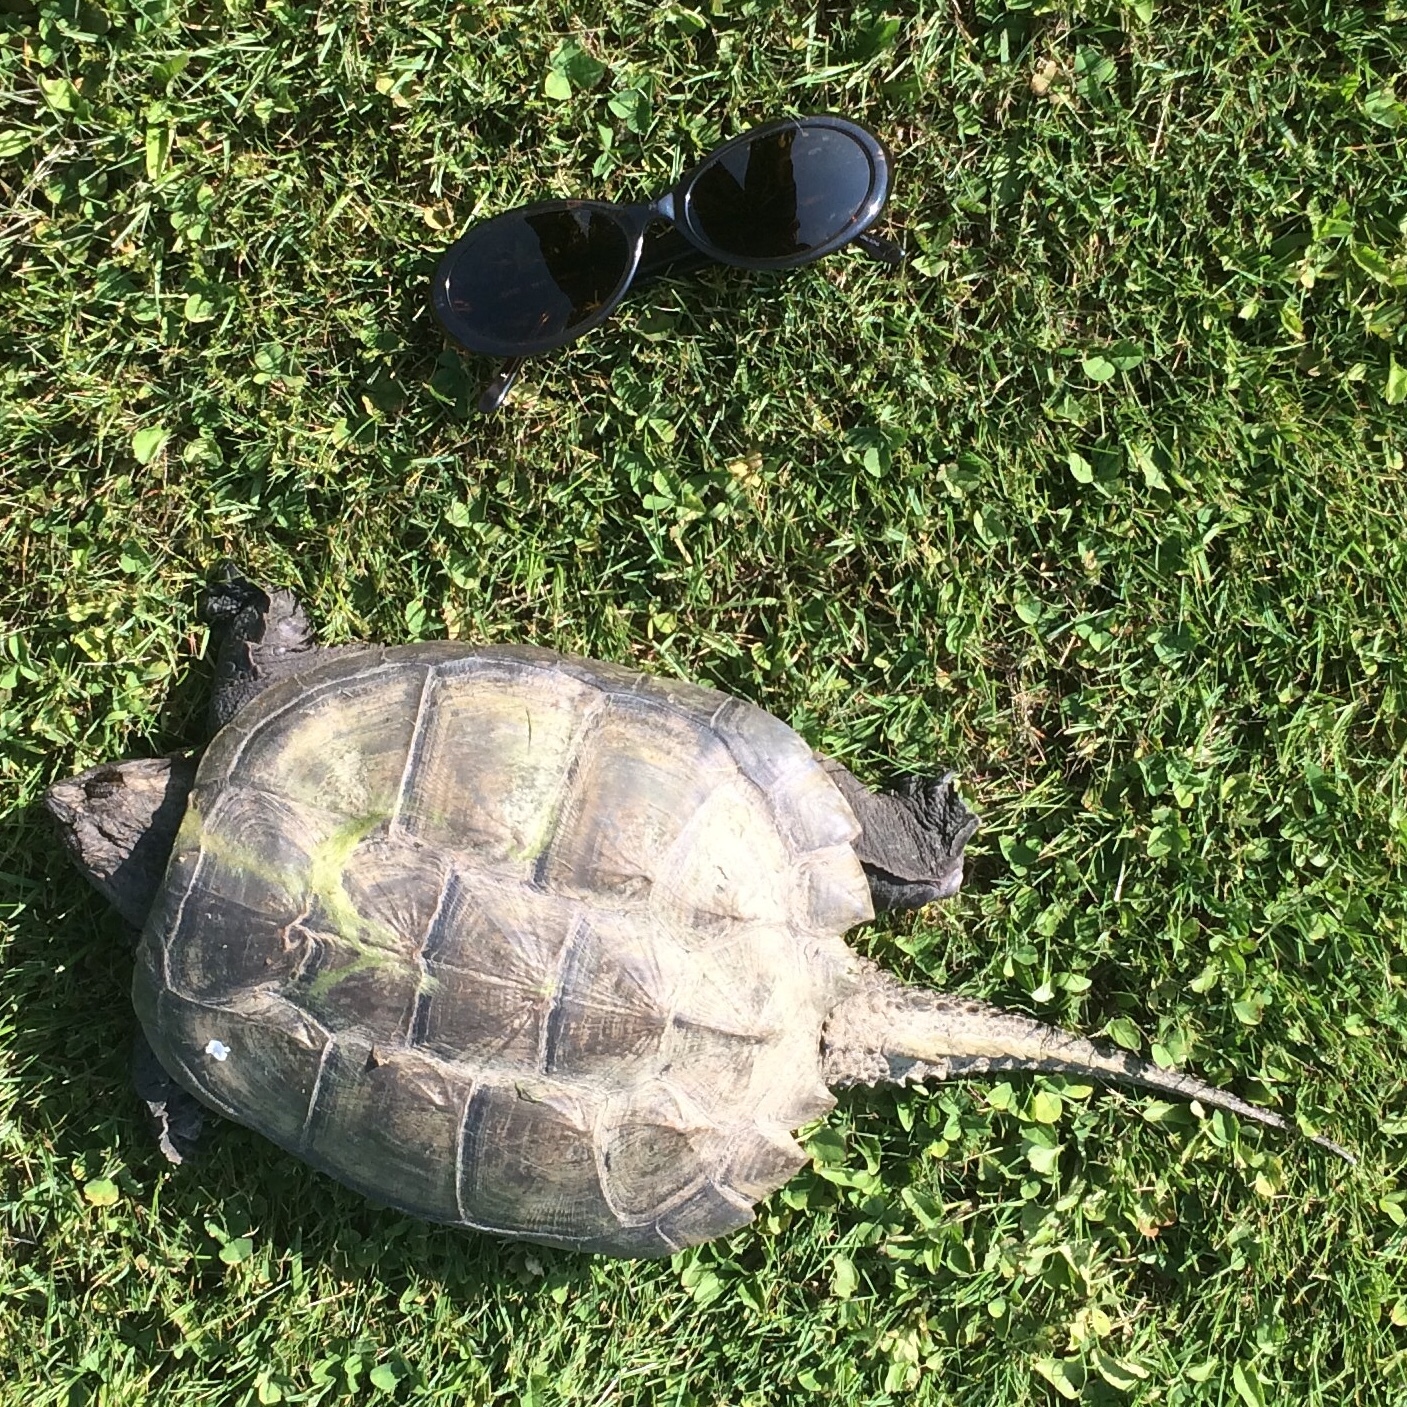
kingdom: Animalia
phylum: Chordata
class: Testudines
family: Chelydridae
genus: Chelydra
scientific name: Chelydra serpentina
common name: Common snapping turtle
